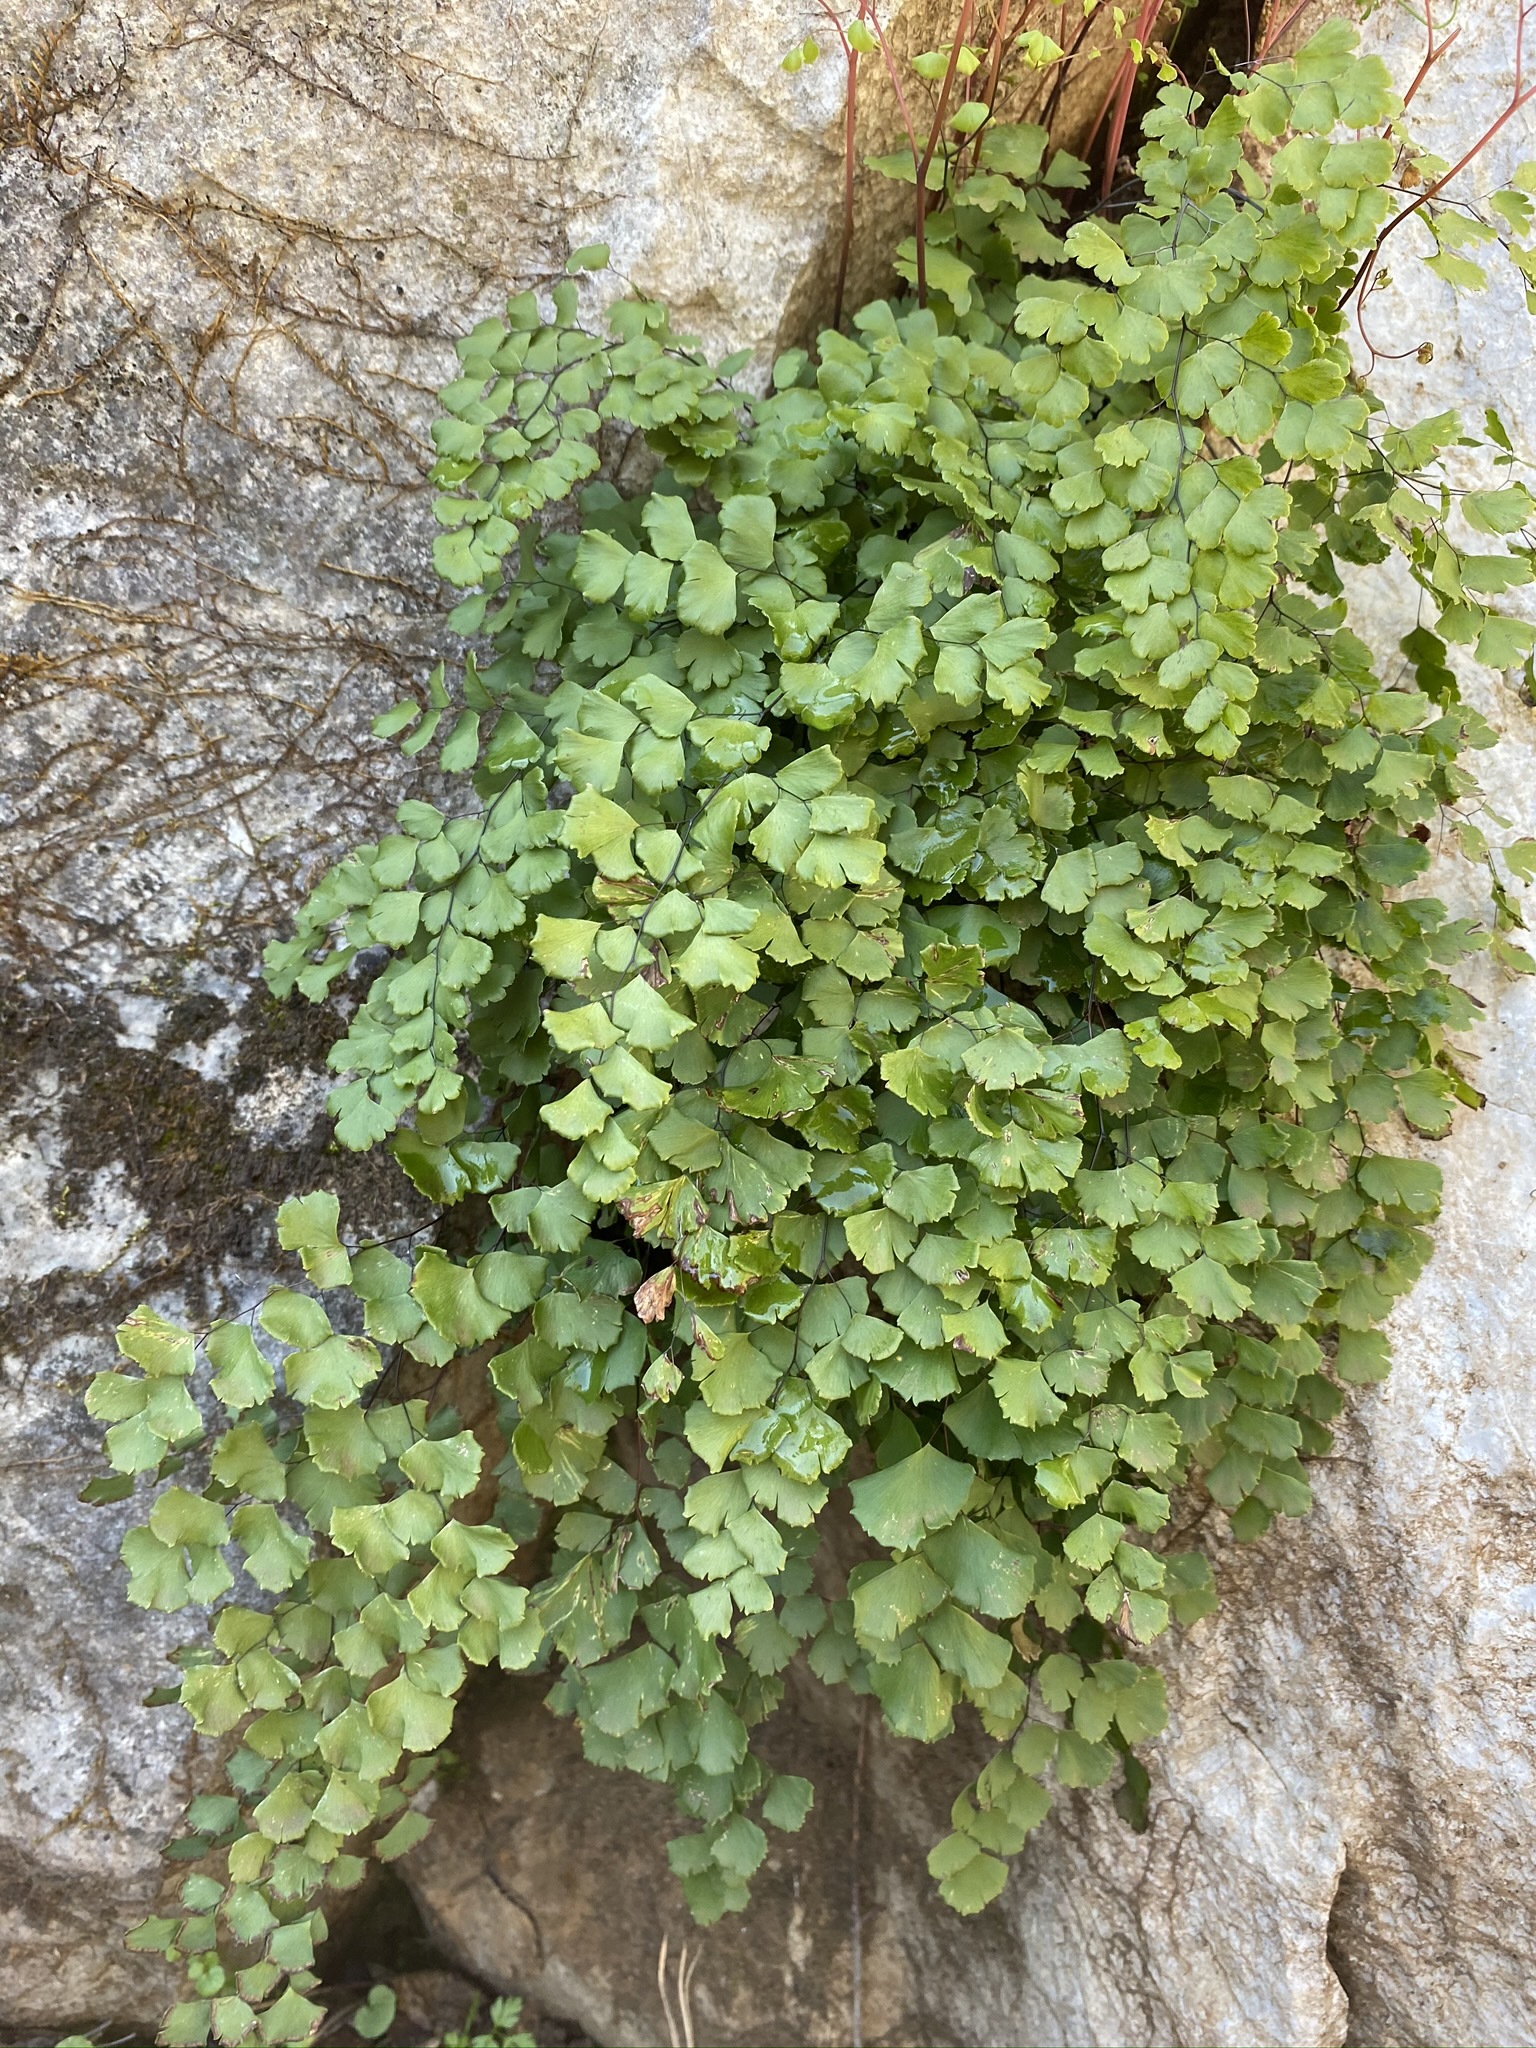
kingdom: Plantae
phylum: Tracheophyta
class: Polypodiopsida
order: Polypodiales
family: Pteridaceae
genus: Adiantum
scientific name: Adiantum shastense
